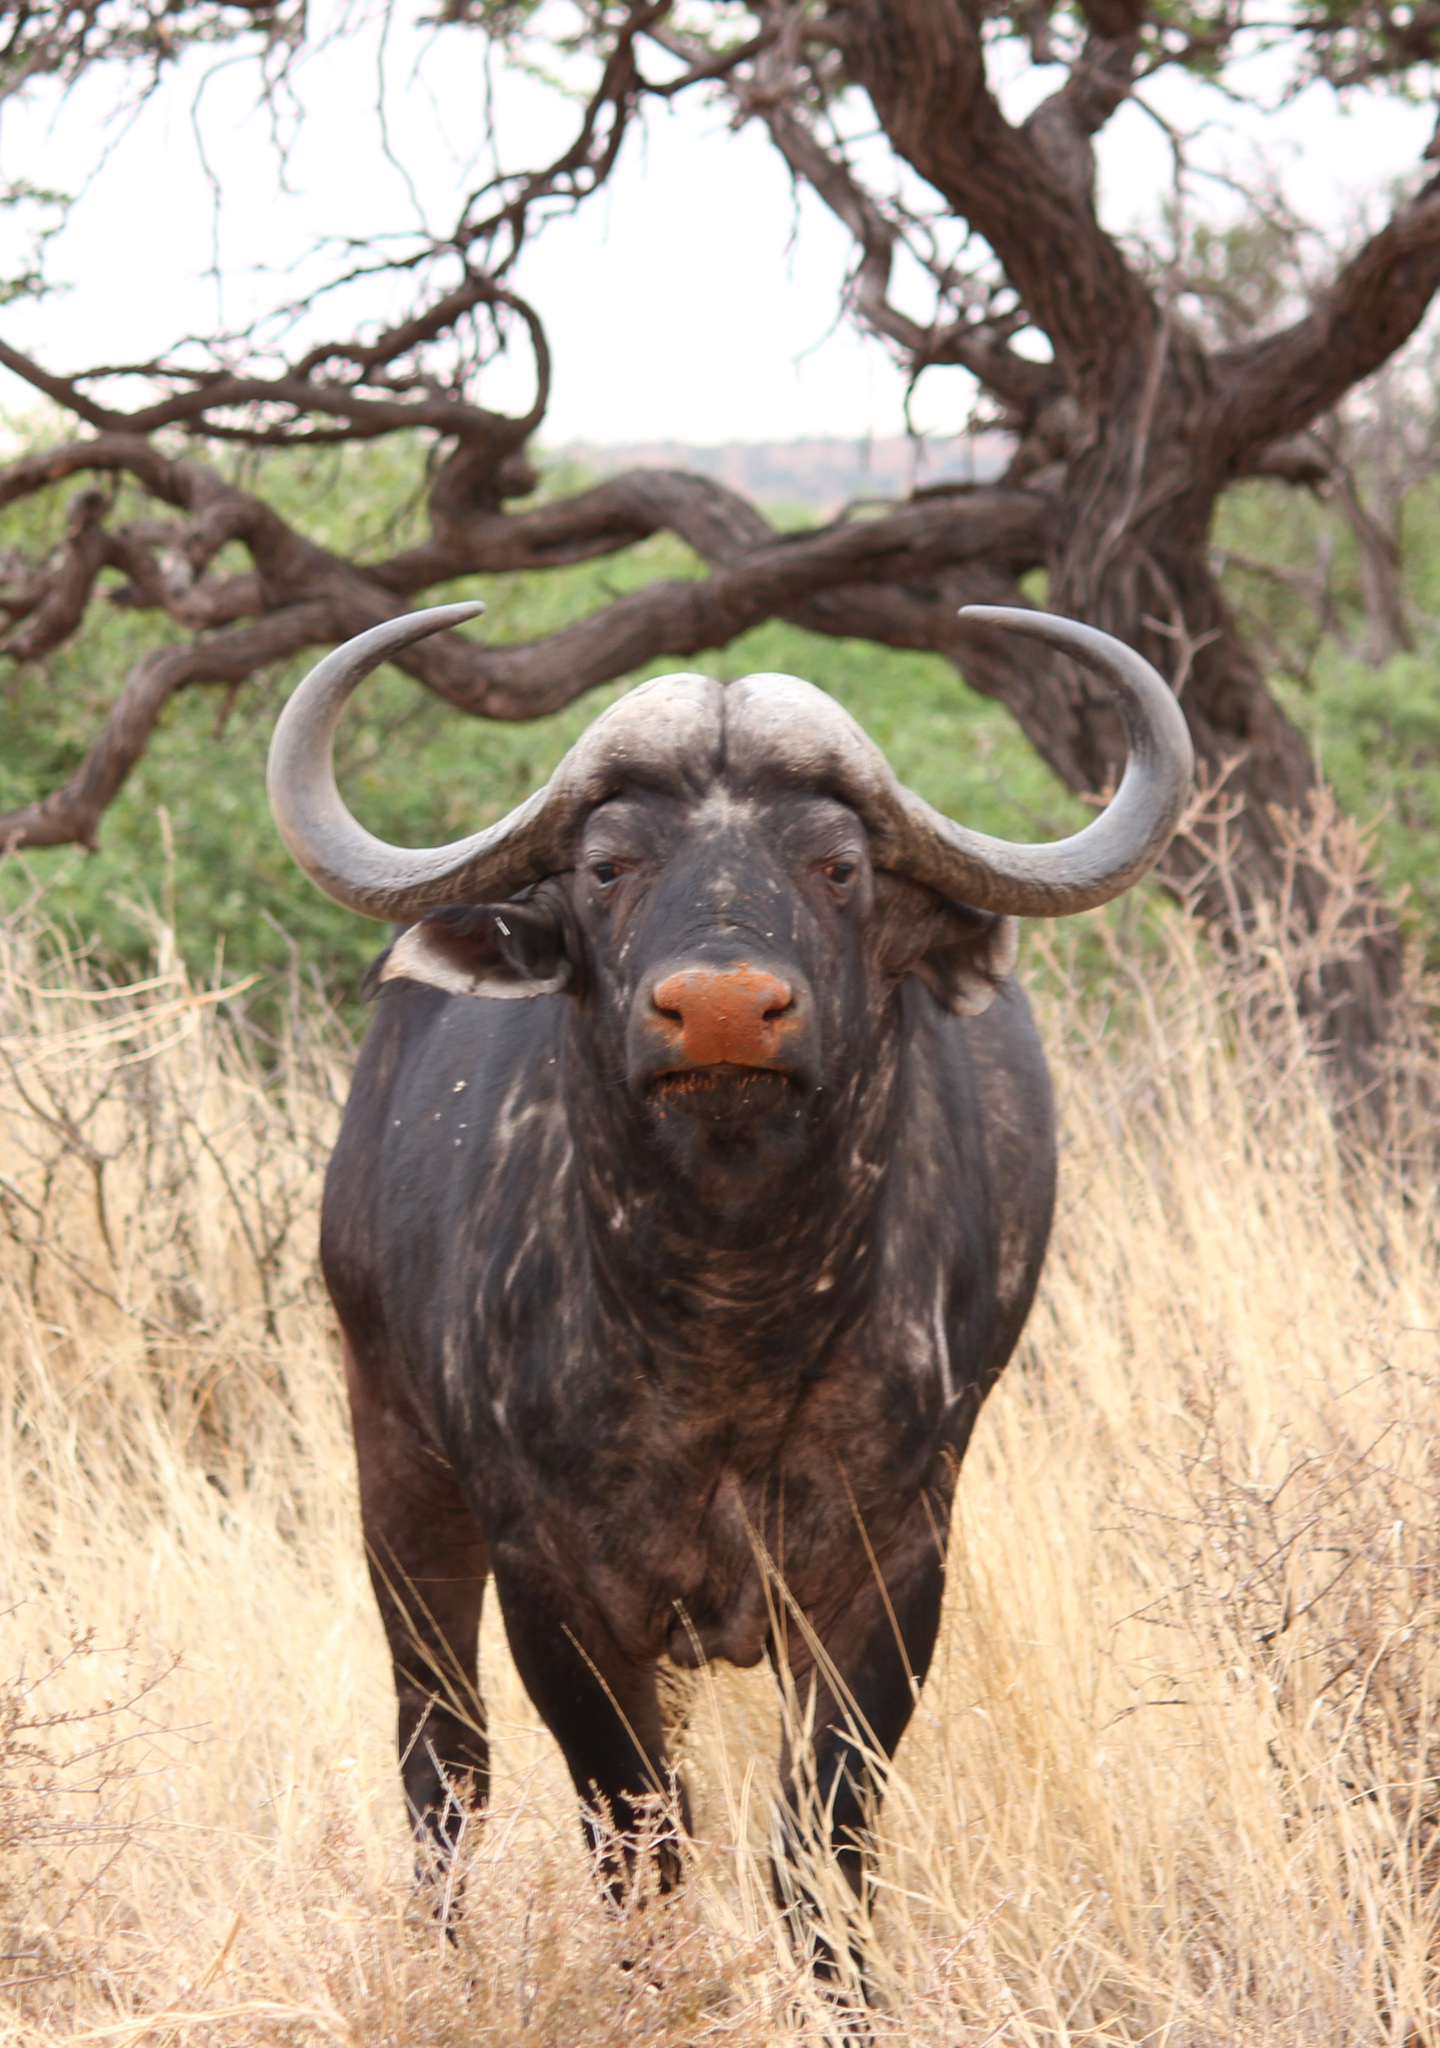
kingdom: Animalia
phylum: Chordata
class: Mammalia
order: Artiodactyla
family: Bovidae
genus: Syncerus
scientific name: Syncerus caffer
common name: African buffalo
